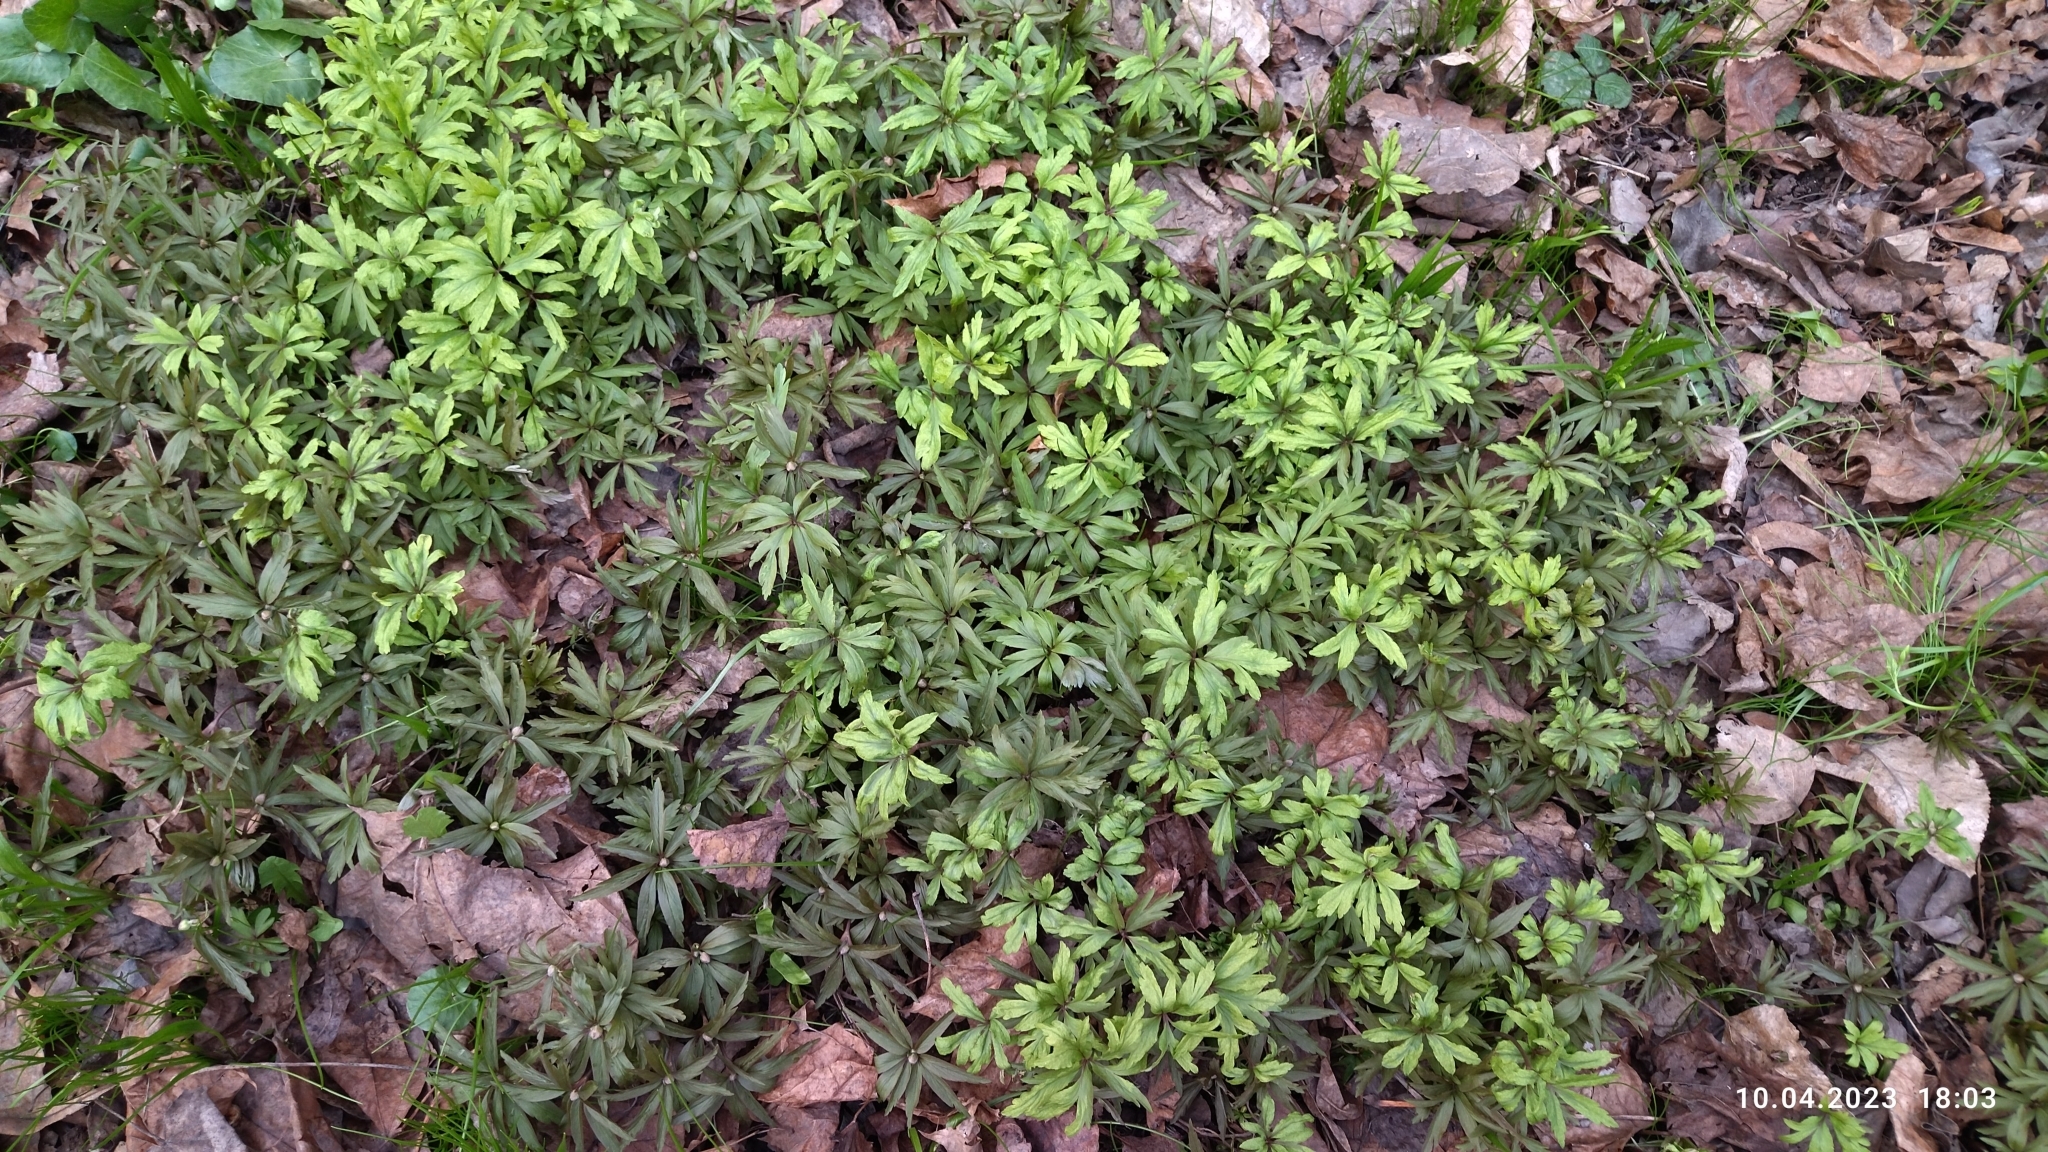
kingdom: Plantae
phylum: Tracheophyta
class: Magnoliopsida
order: Ranunculales
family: Ranunculaceae
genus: Anemone
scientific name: Anemone ranunculoides
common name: Yellow anemone
